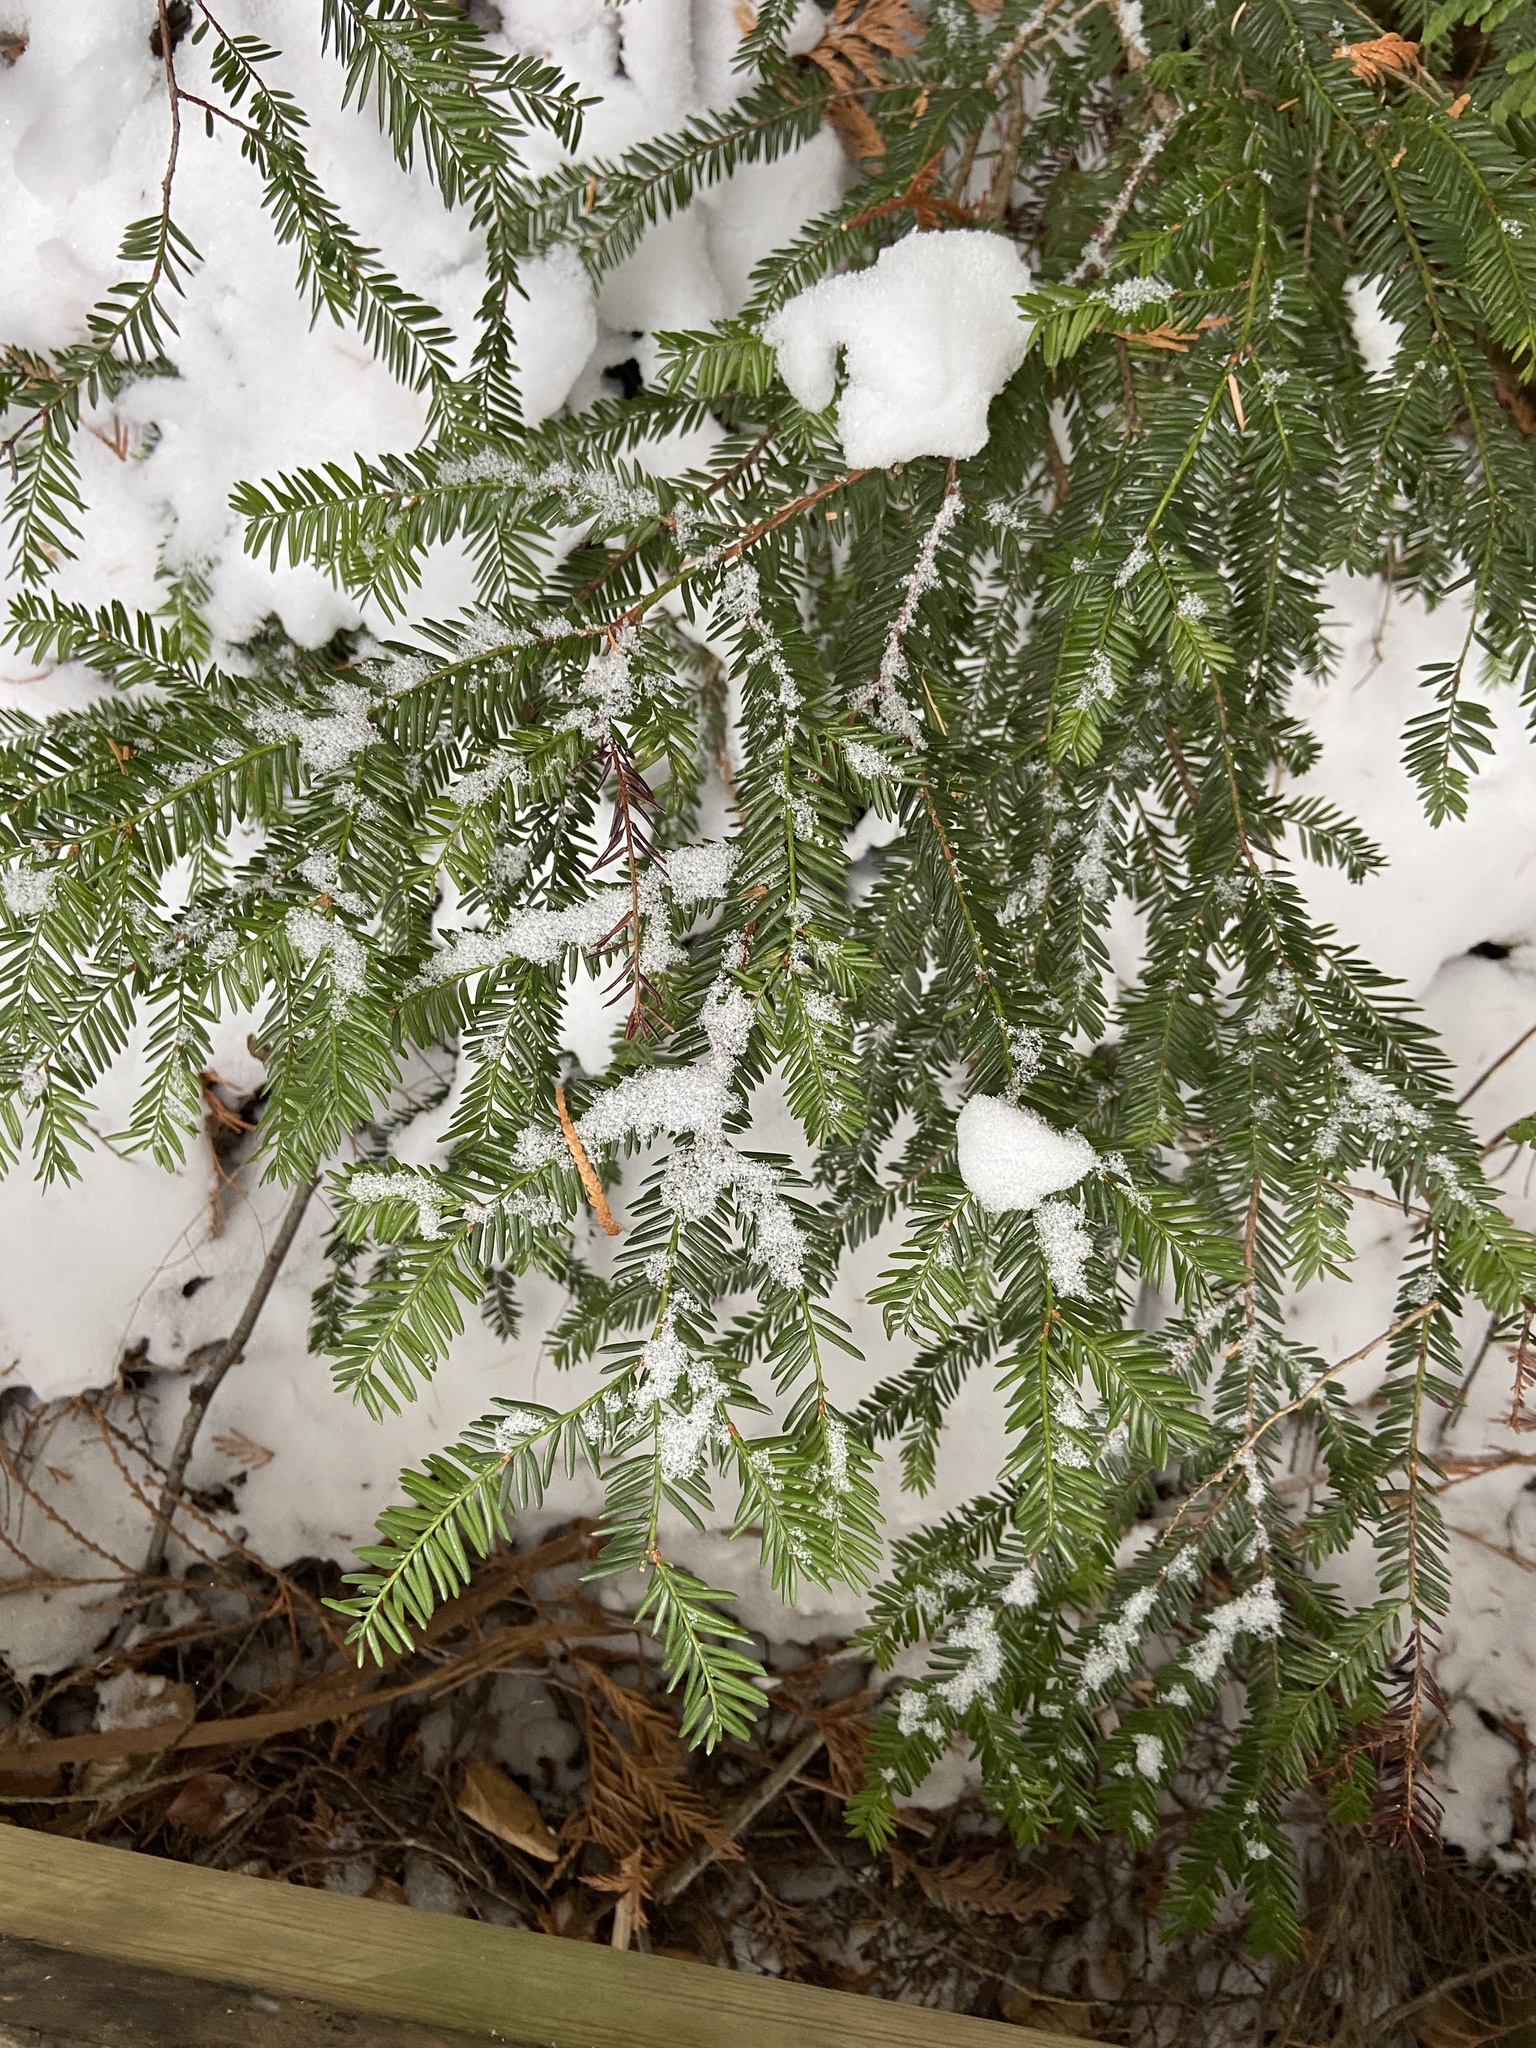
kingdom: Plantae
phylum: Tracheophyta
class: Pinopsida
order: Pinales
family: Taxaceae
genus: Taxus
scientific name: Taxus brevifolia
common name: Pacific yew
